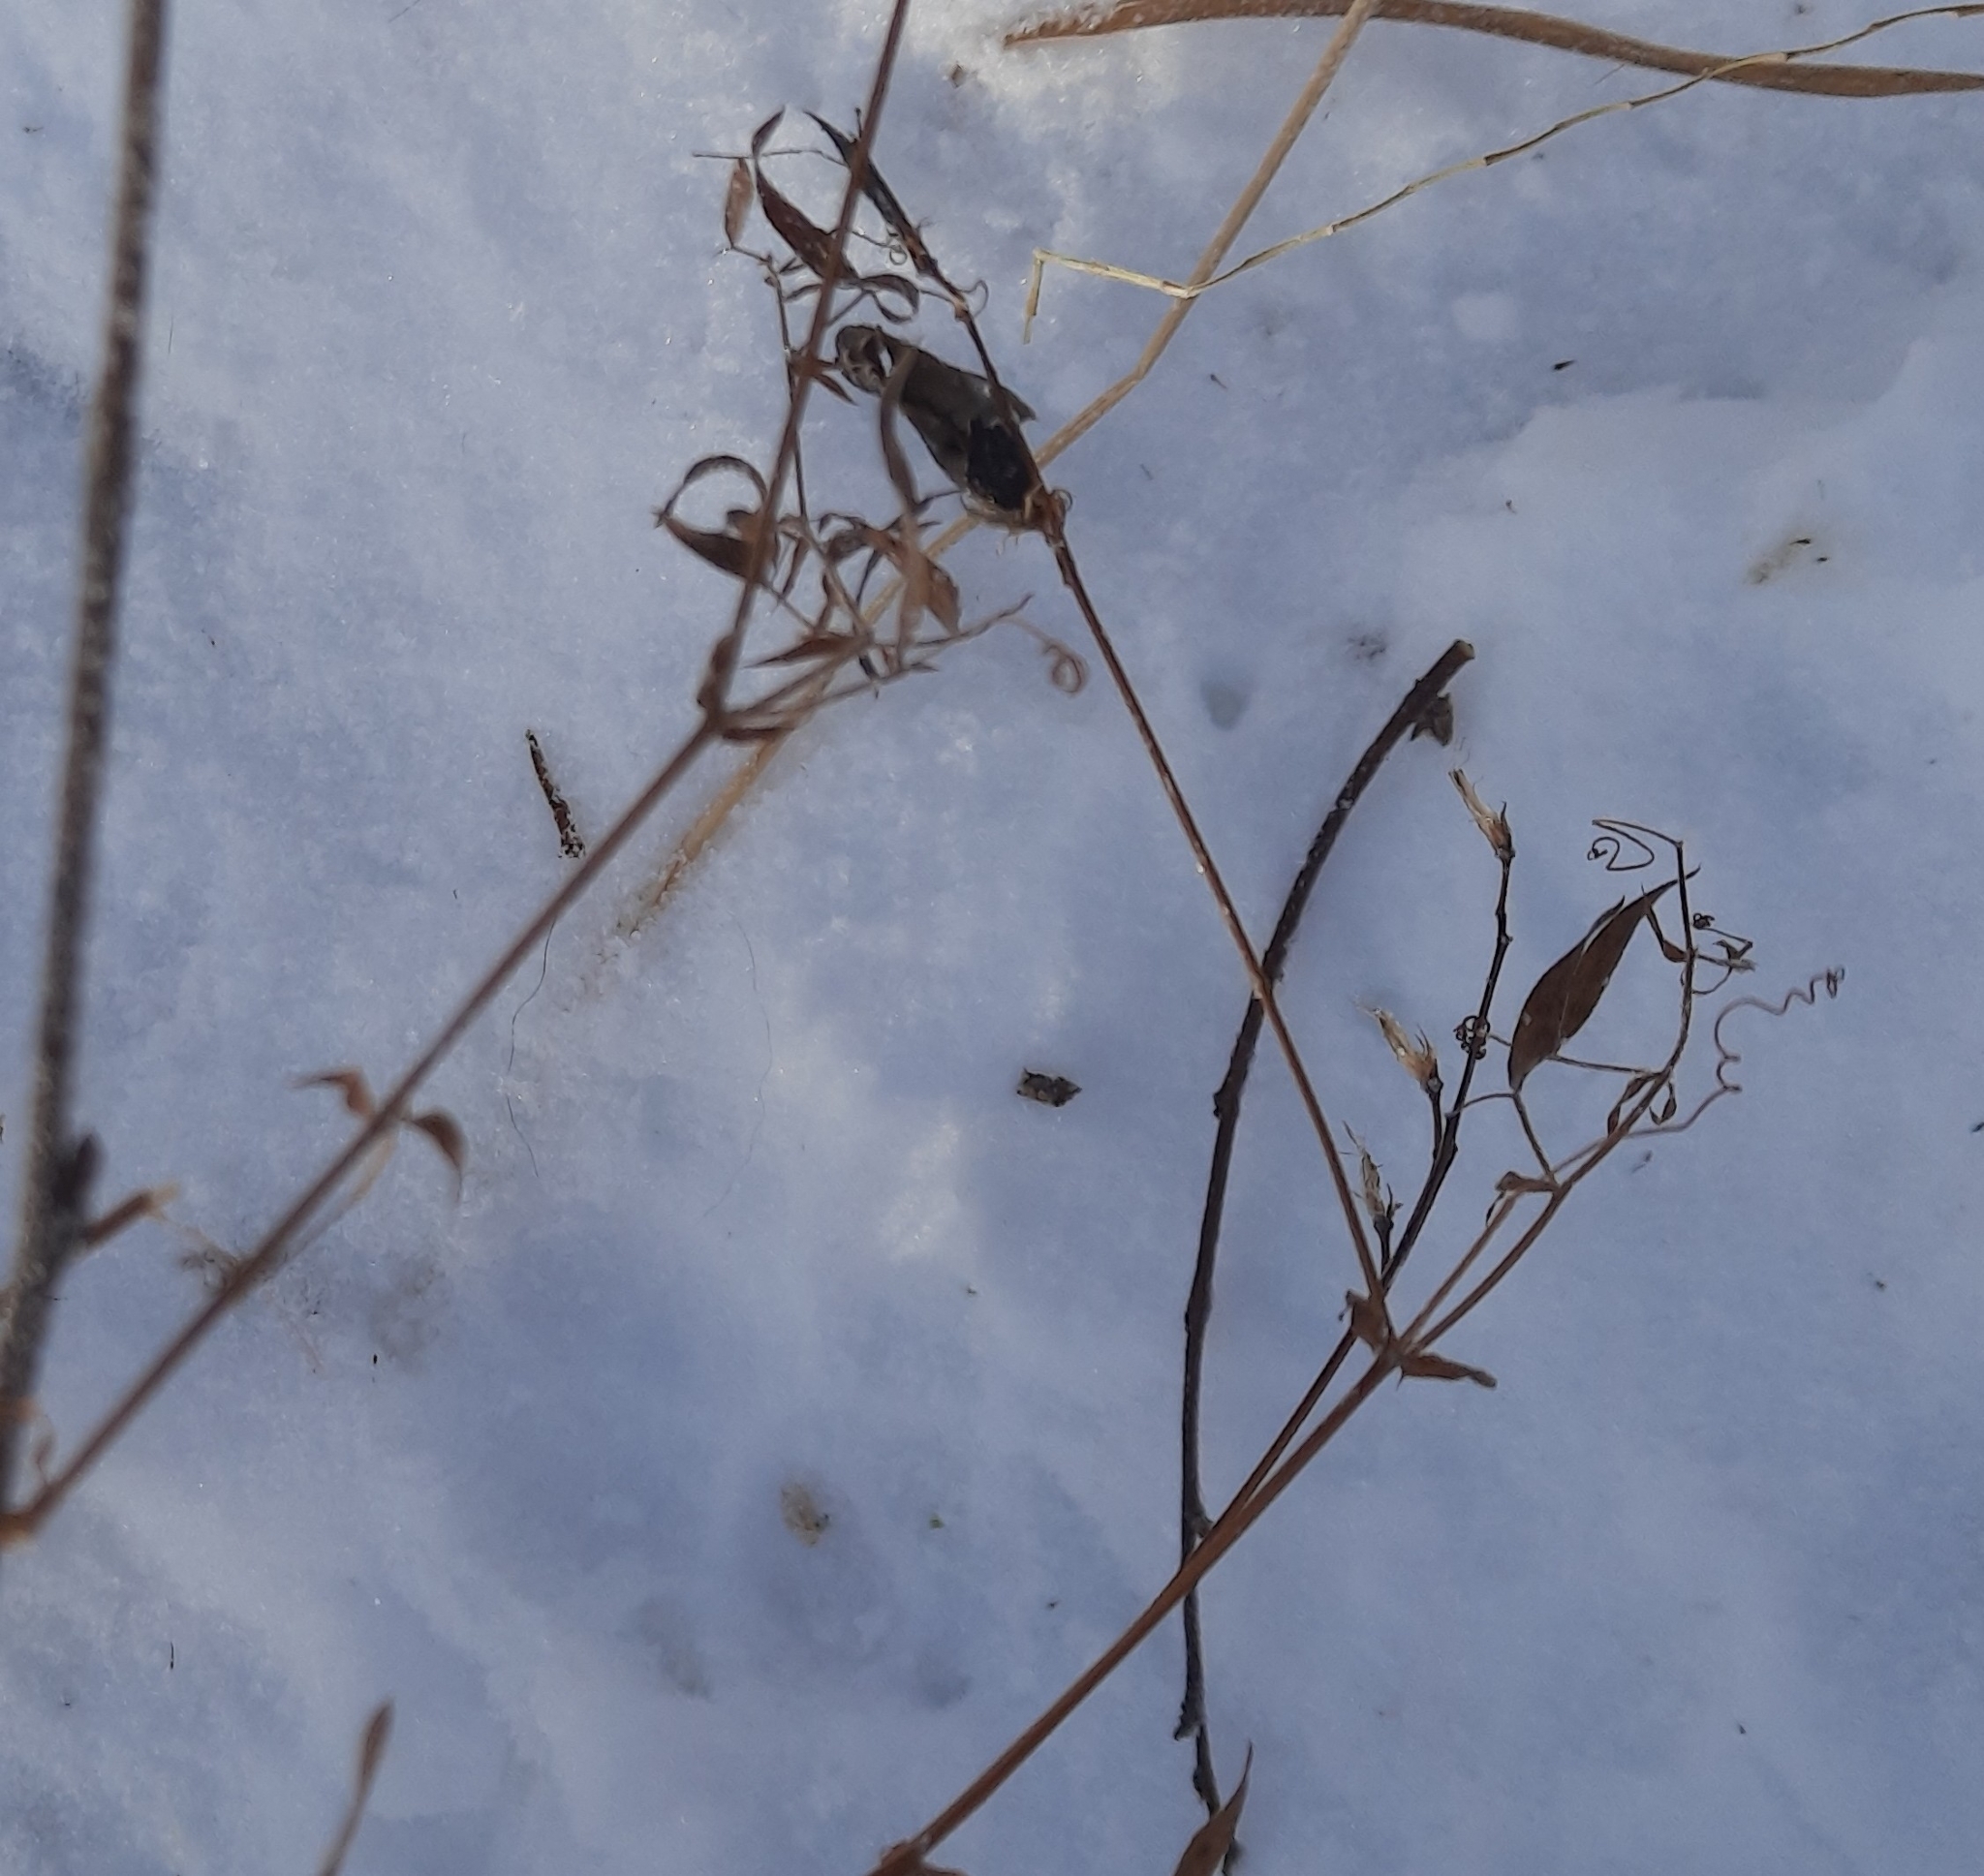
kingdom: Plantae
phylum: Tracheophyta
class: Magnoliopsida
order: Fabales
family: Fabaceae
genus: Lathyrus
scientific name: Lathyrus pratensis
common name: Meadow vetchling
